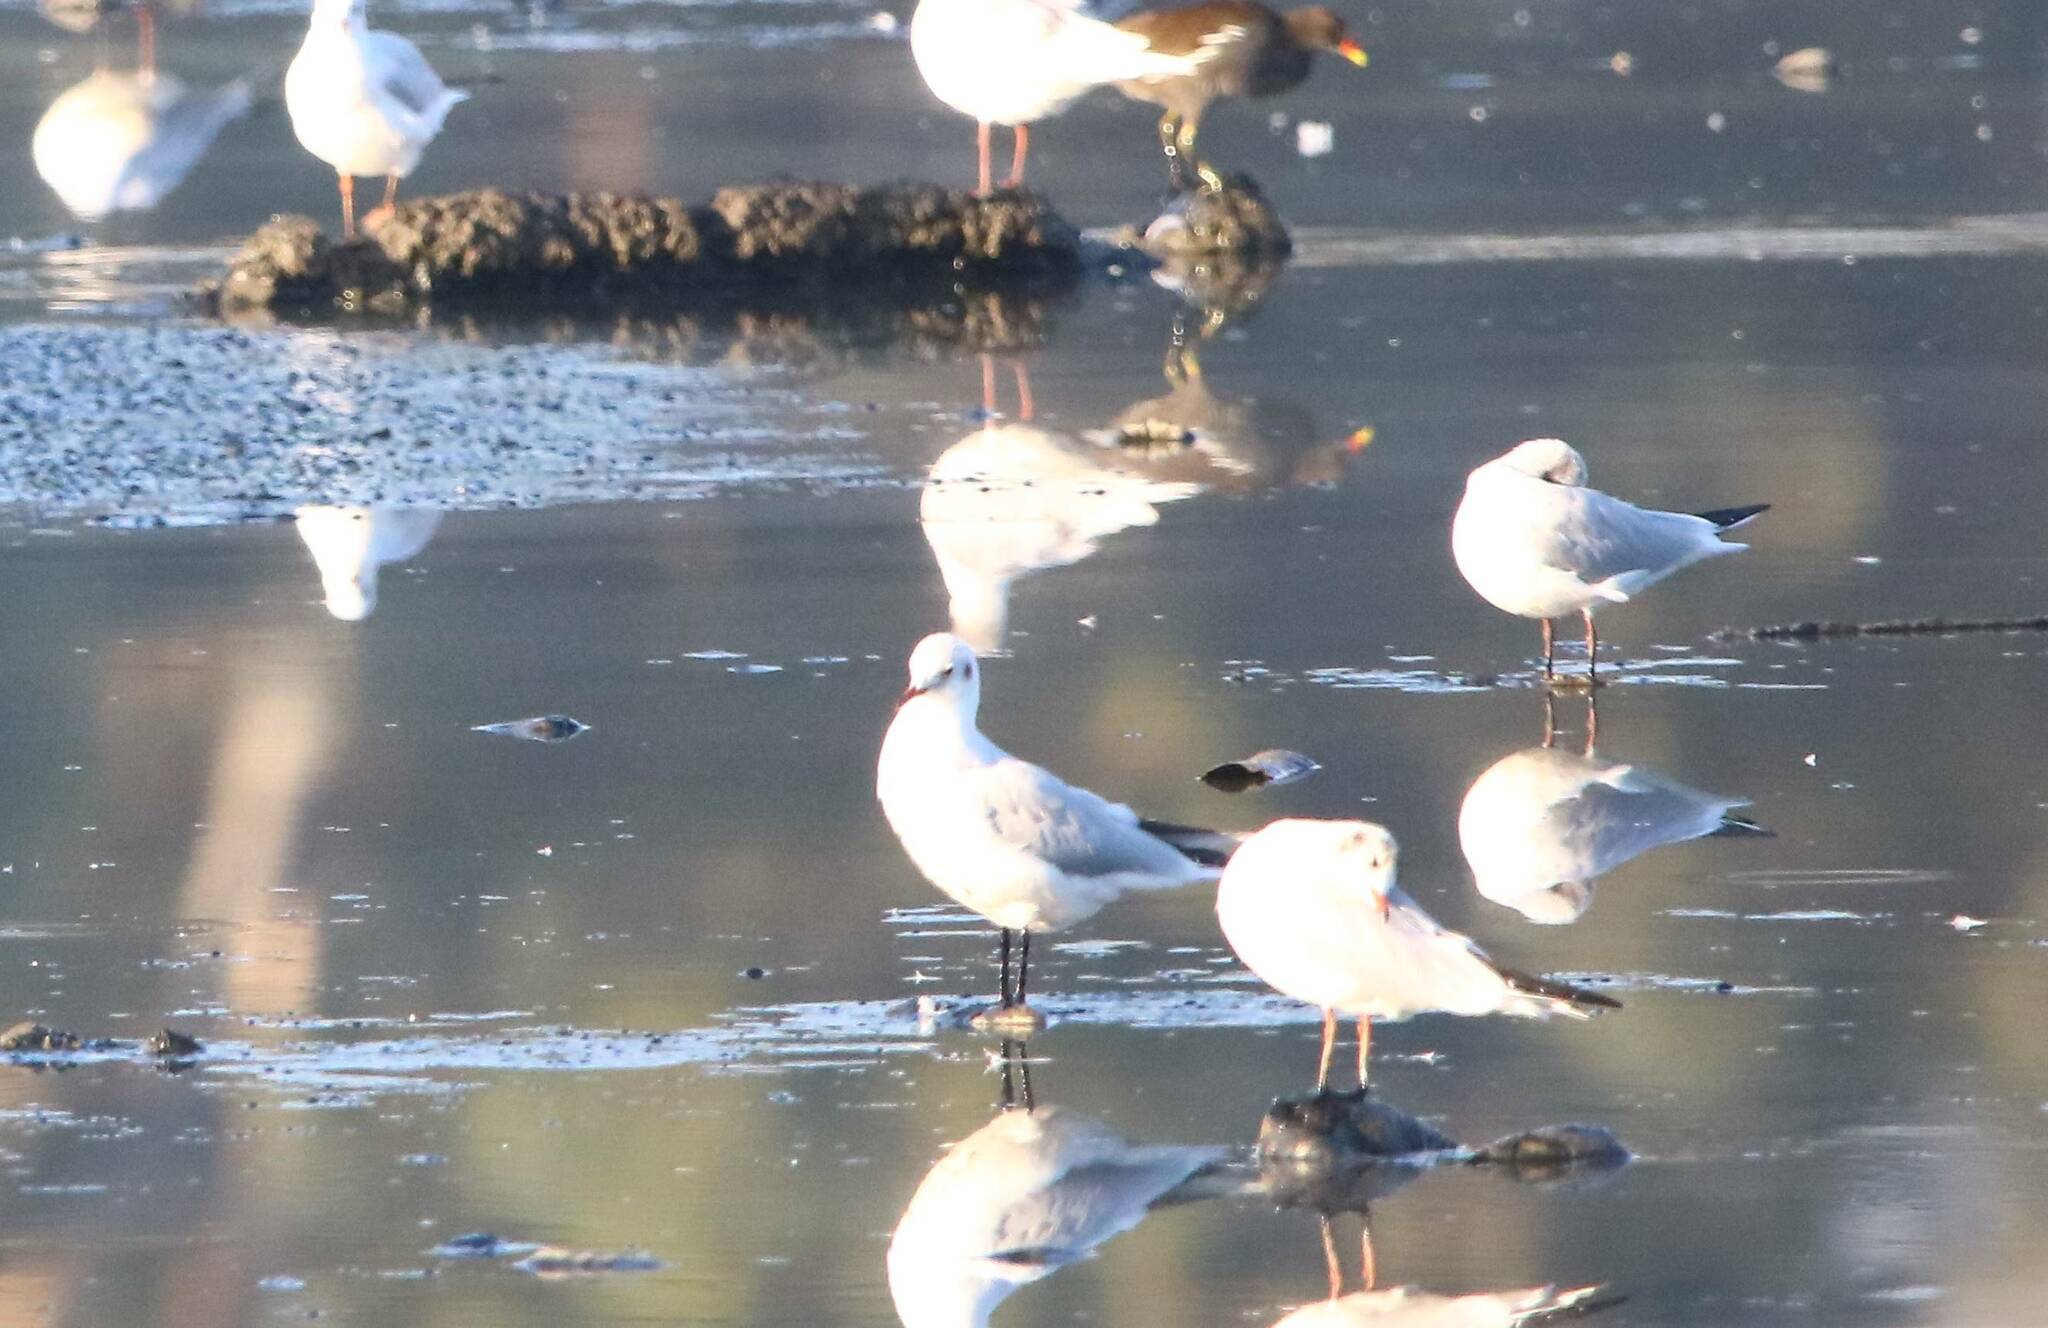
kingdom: Animalia
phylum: Chordata
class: Aves
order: Charadriiformes
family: Laridae
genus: Chroicocephalus
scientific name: Chroicocephalus ridibundus
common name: Black-headed gull
